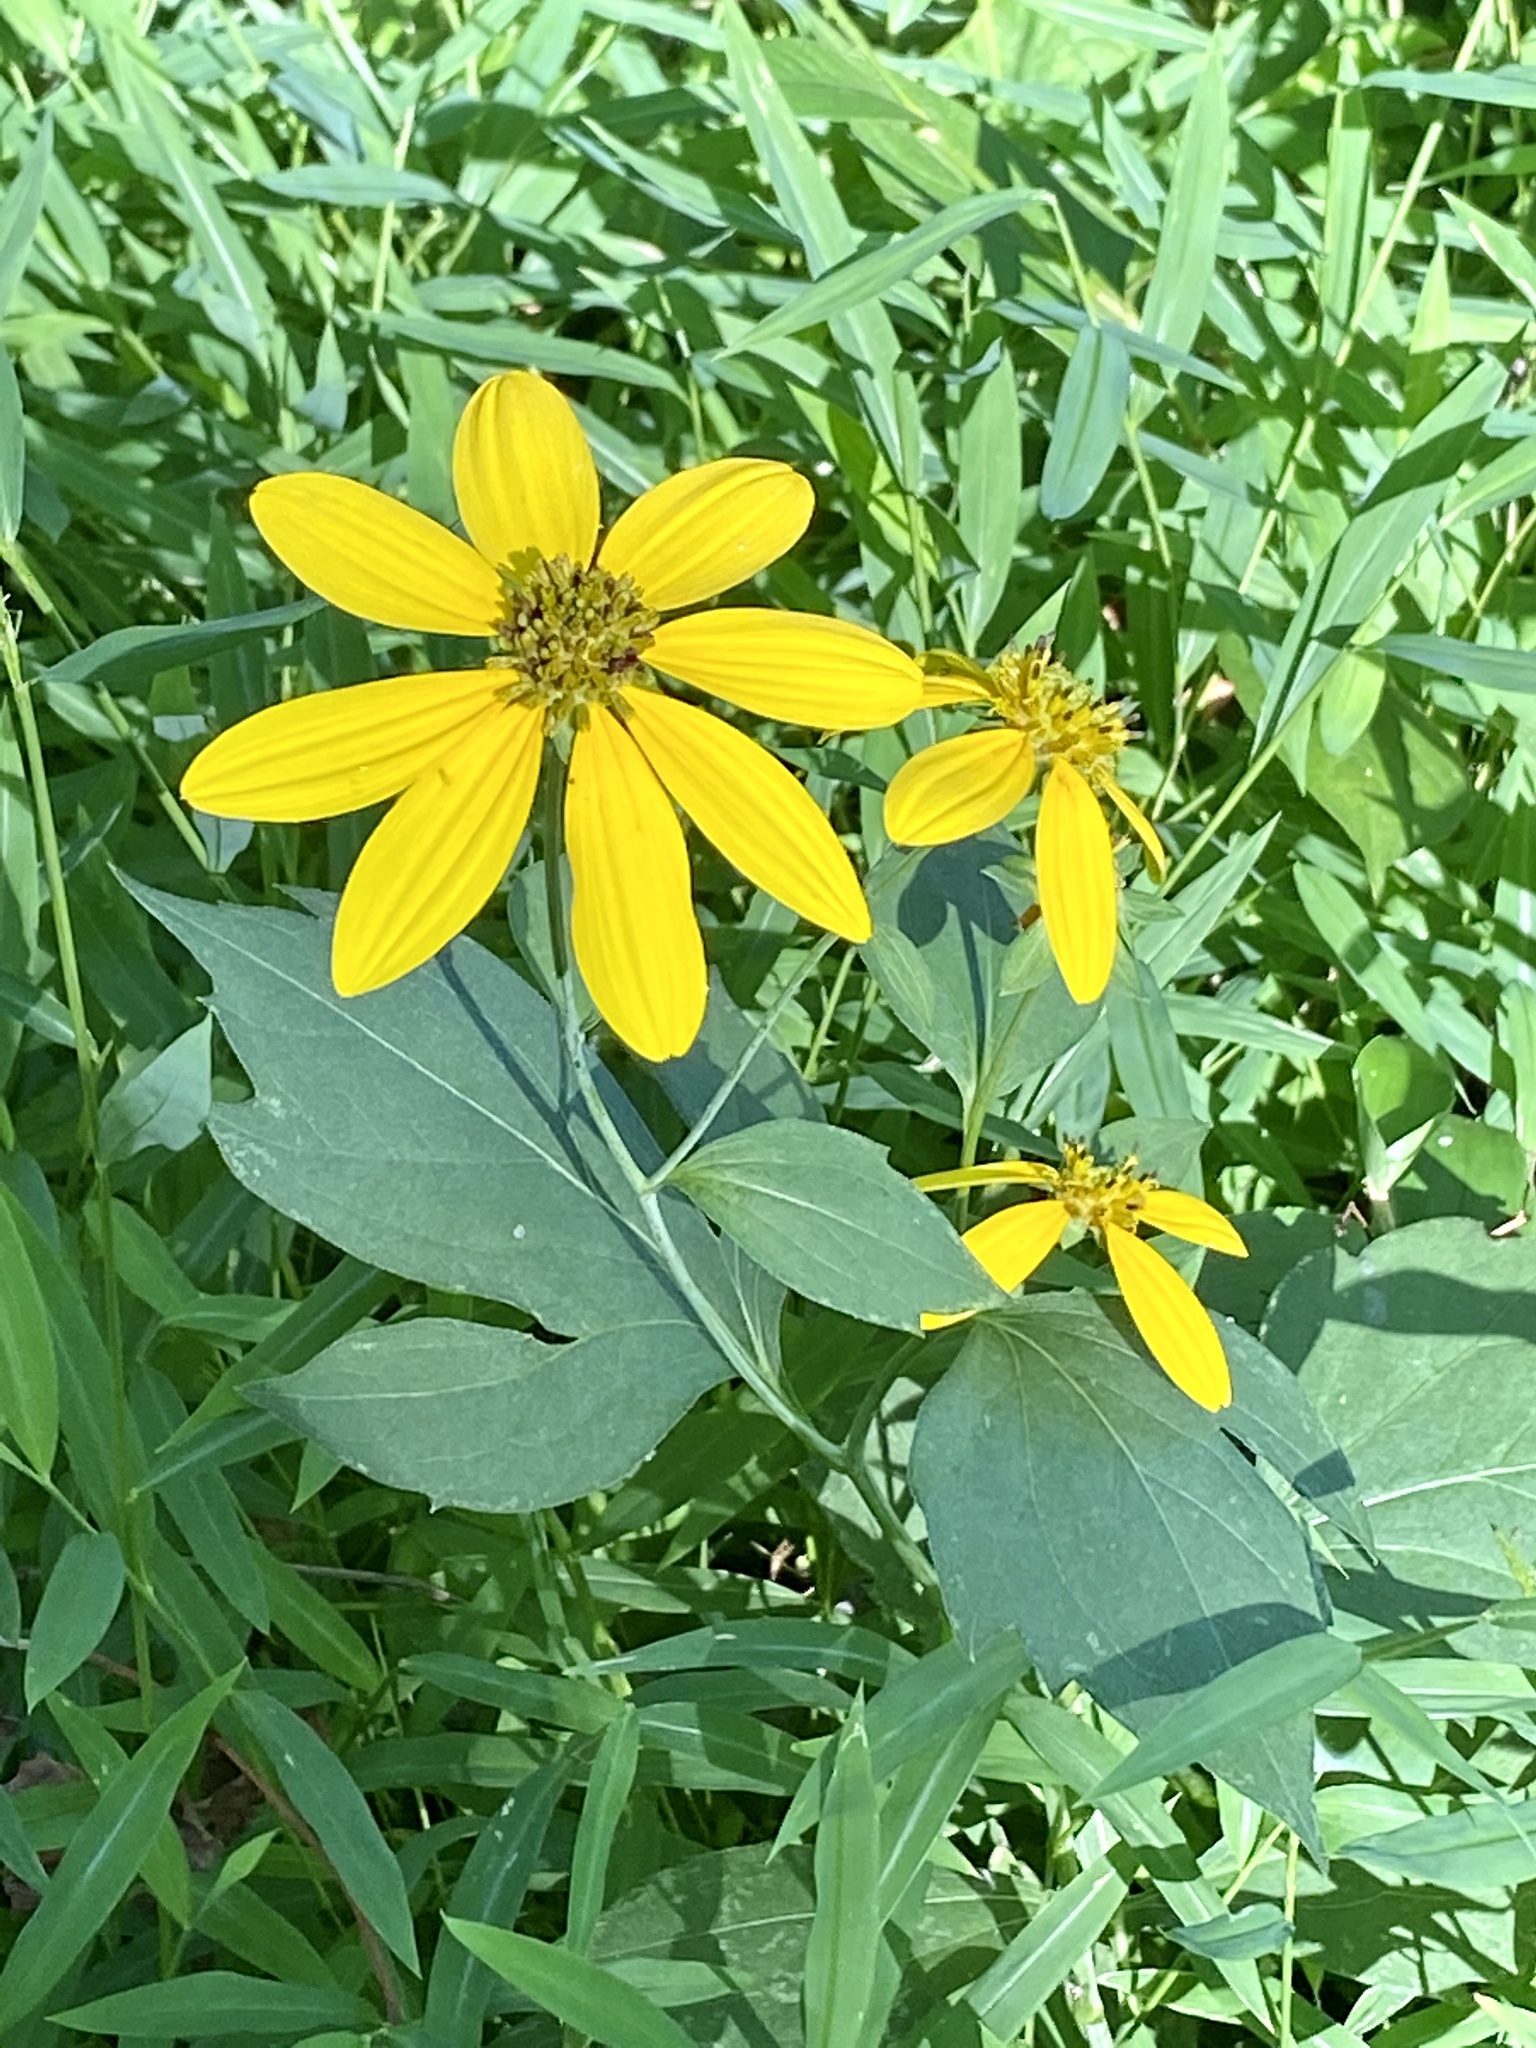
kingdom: Plantae
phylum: Tracheophyta
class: Magnoliopsida
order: Asterales
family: Asteraceae
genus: Rudbeckia
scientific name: Rudbeckia laciniata
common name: Coneflower
